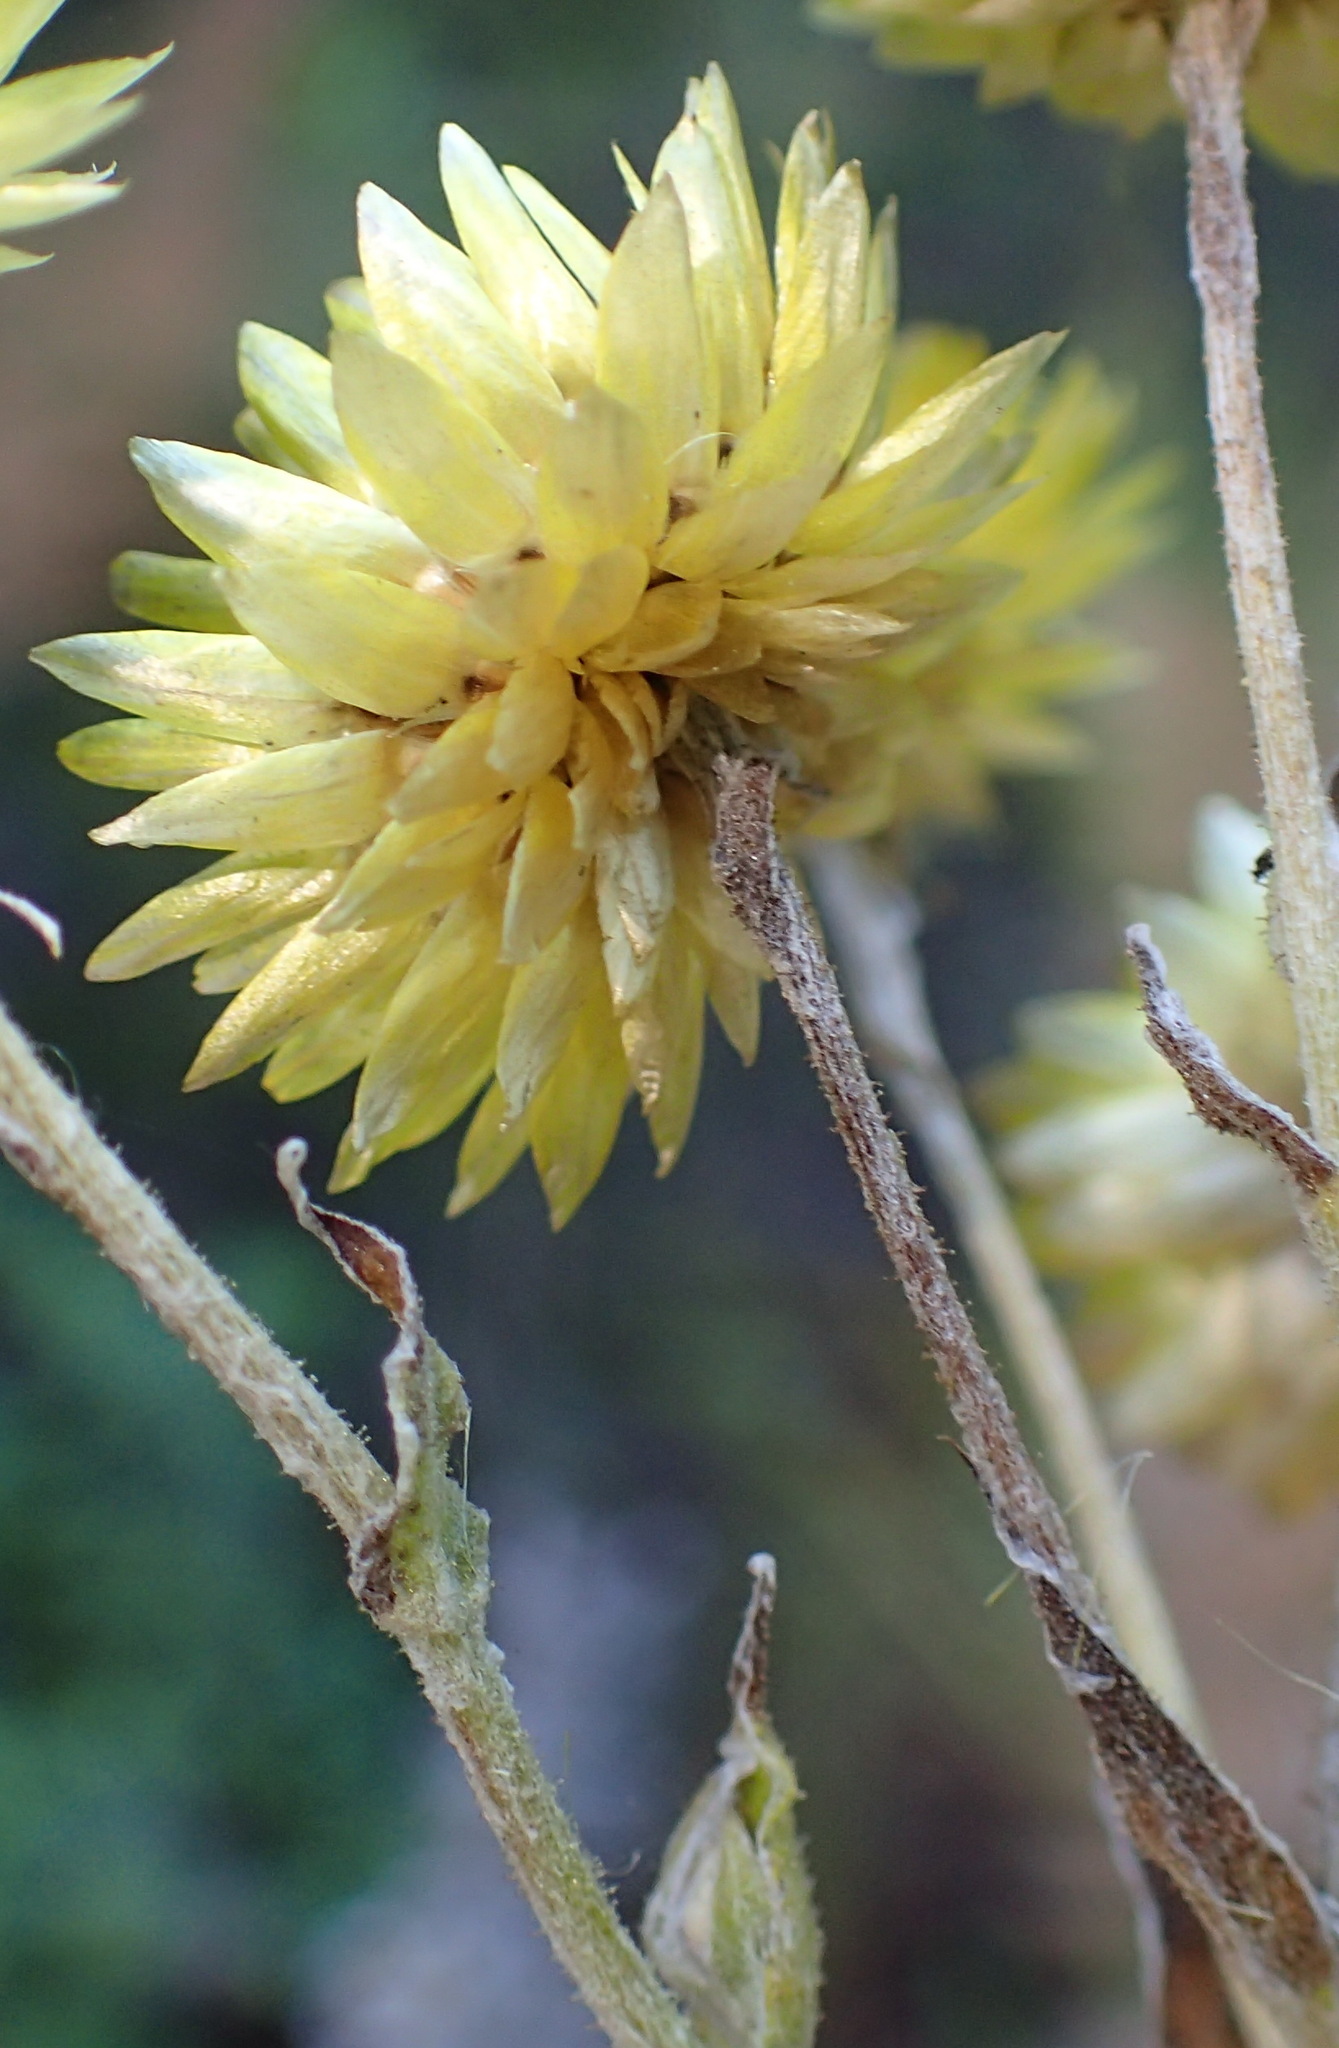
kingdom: Plantae
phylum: Tracheophyta
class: Magnoliopsida
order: Asterales
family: Asteraceae
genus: Helichrysum
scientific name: Helichrysum foetidum
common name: Stinking everlasting
